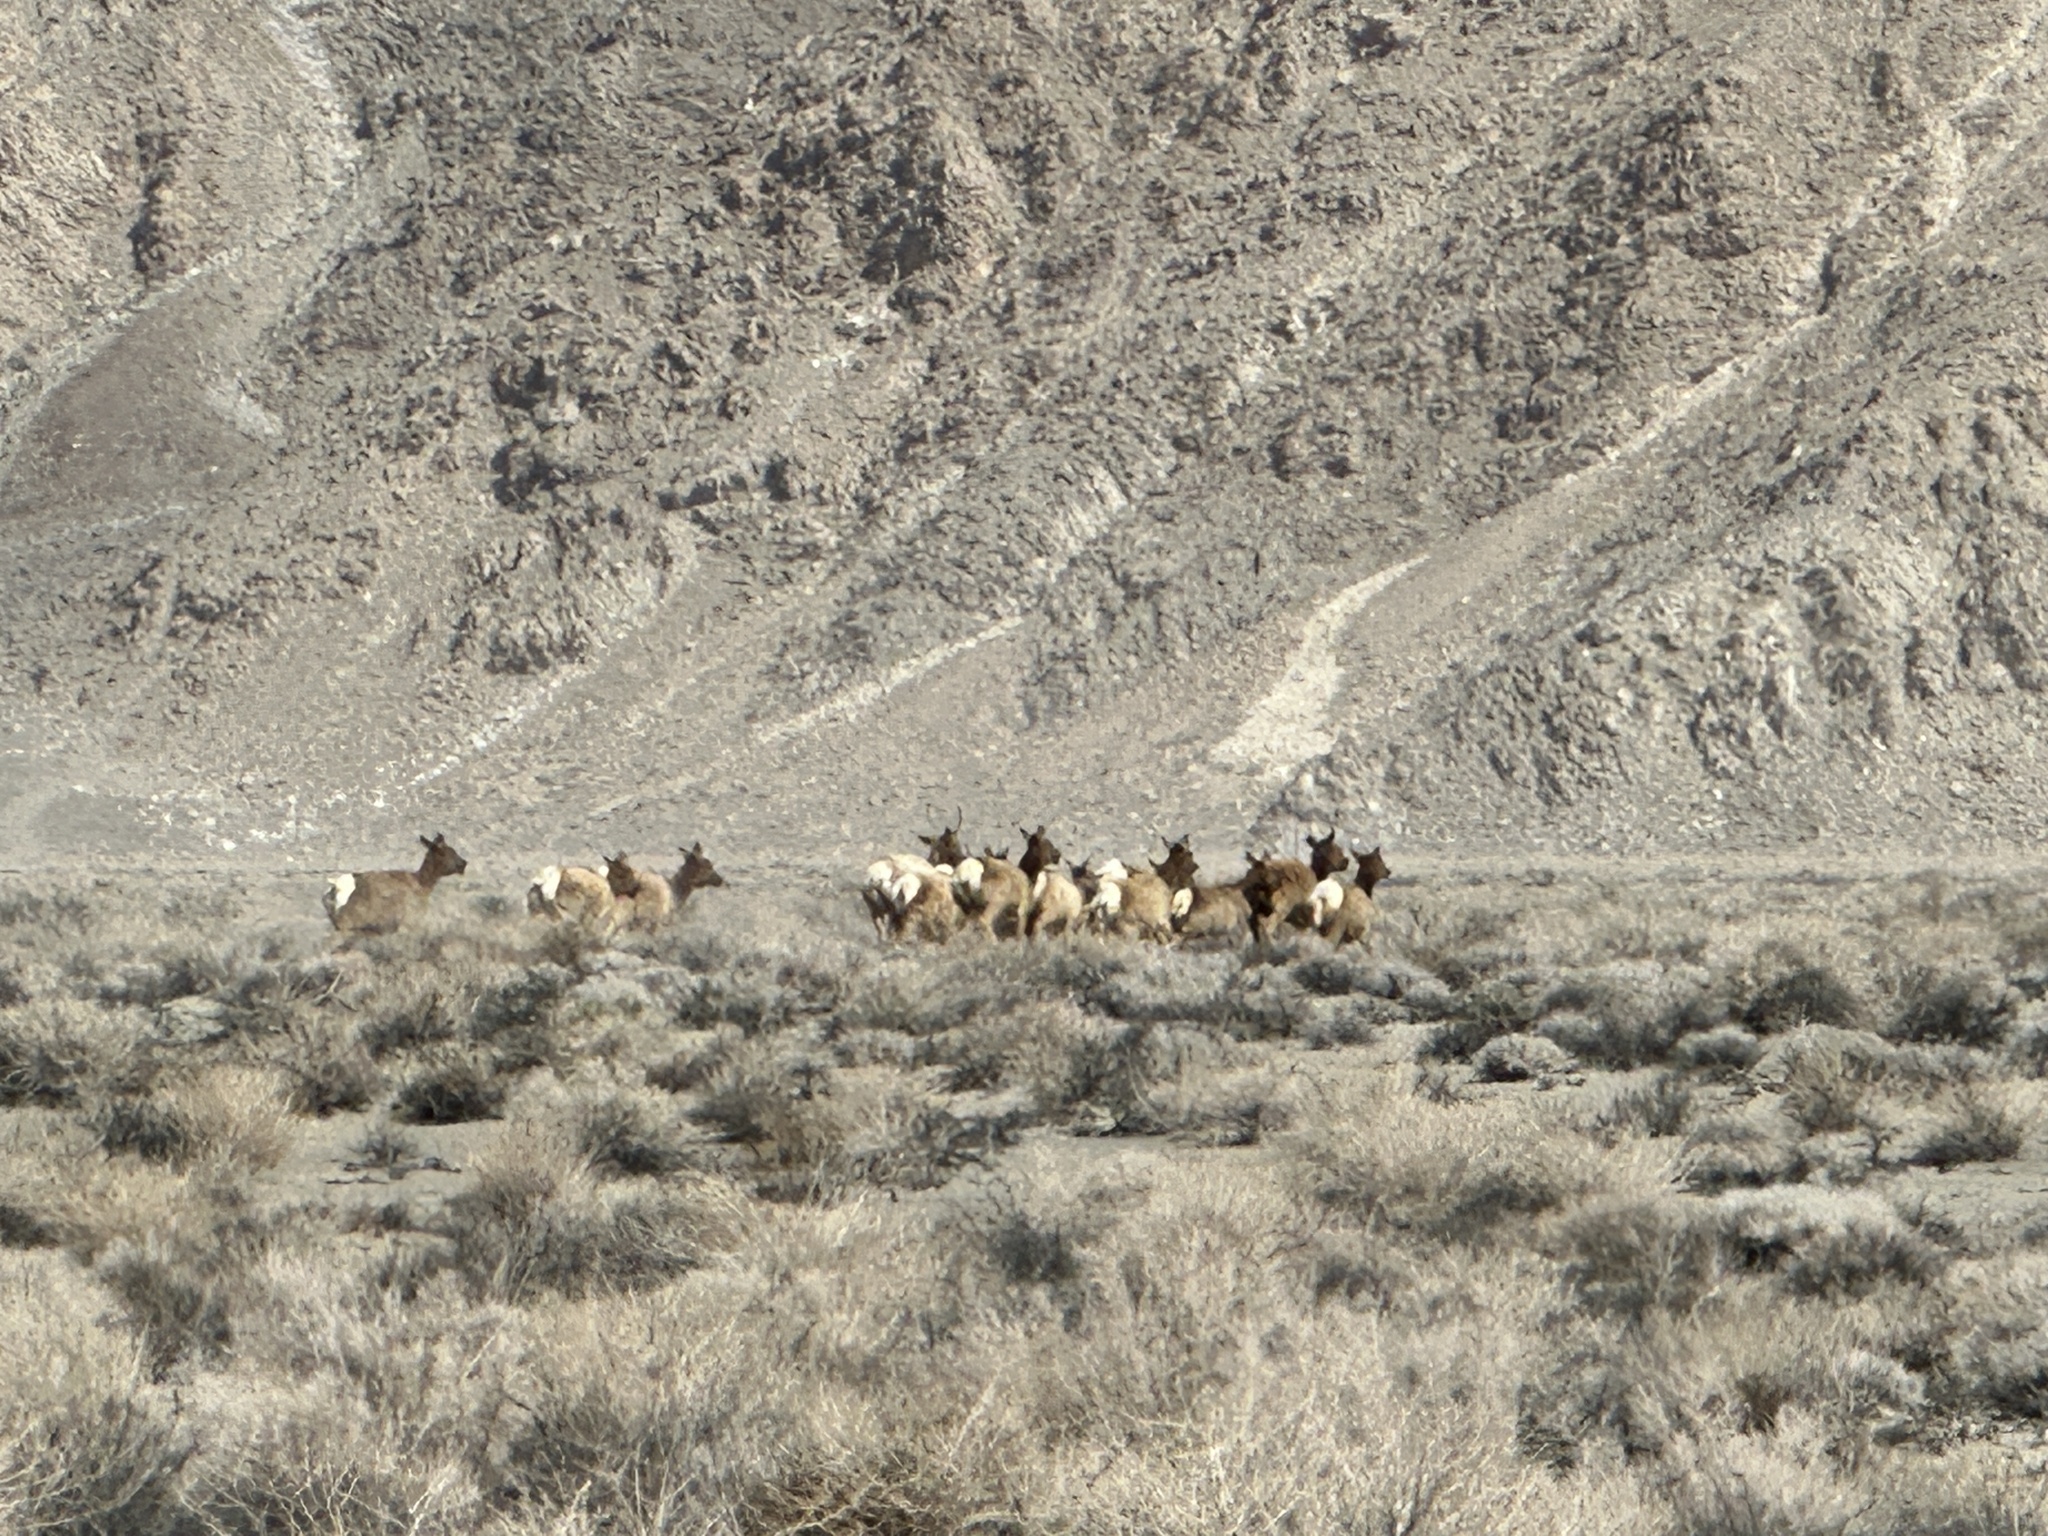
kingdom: Animalia
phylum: Chordata
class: Mammalia
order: Artiodactyla
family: Cervidae
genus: Cervus
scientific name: Cervus elaphus
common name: Red deer
